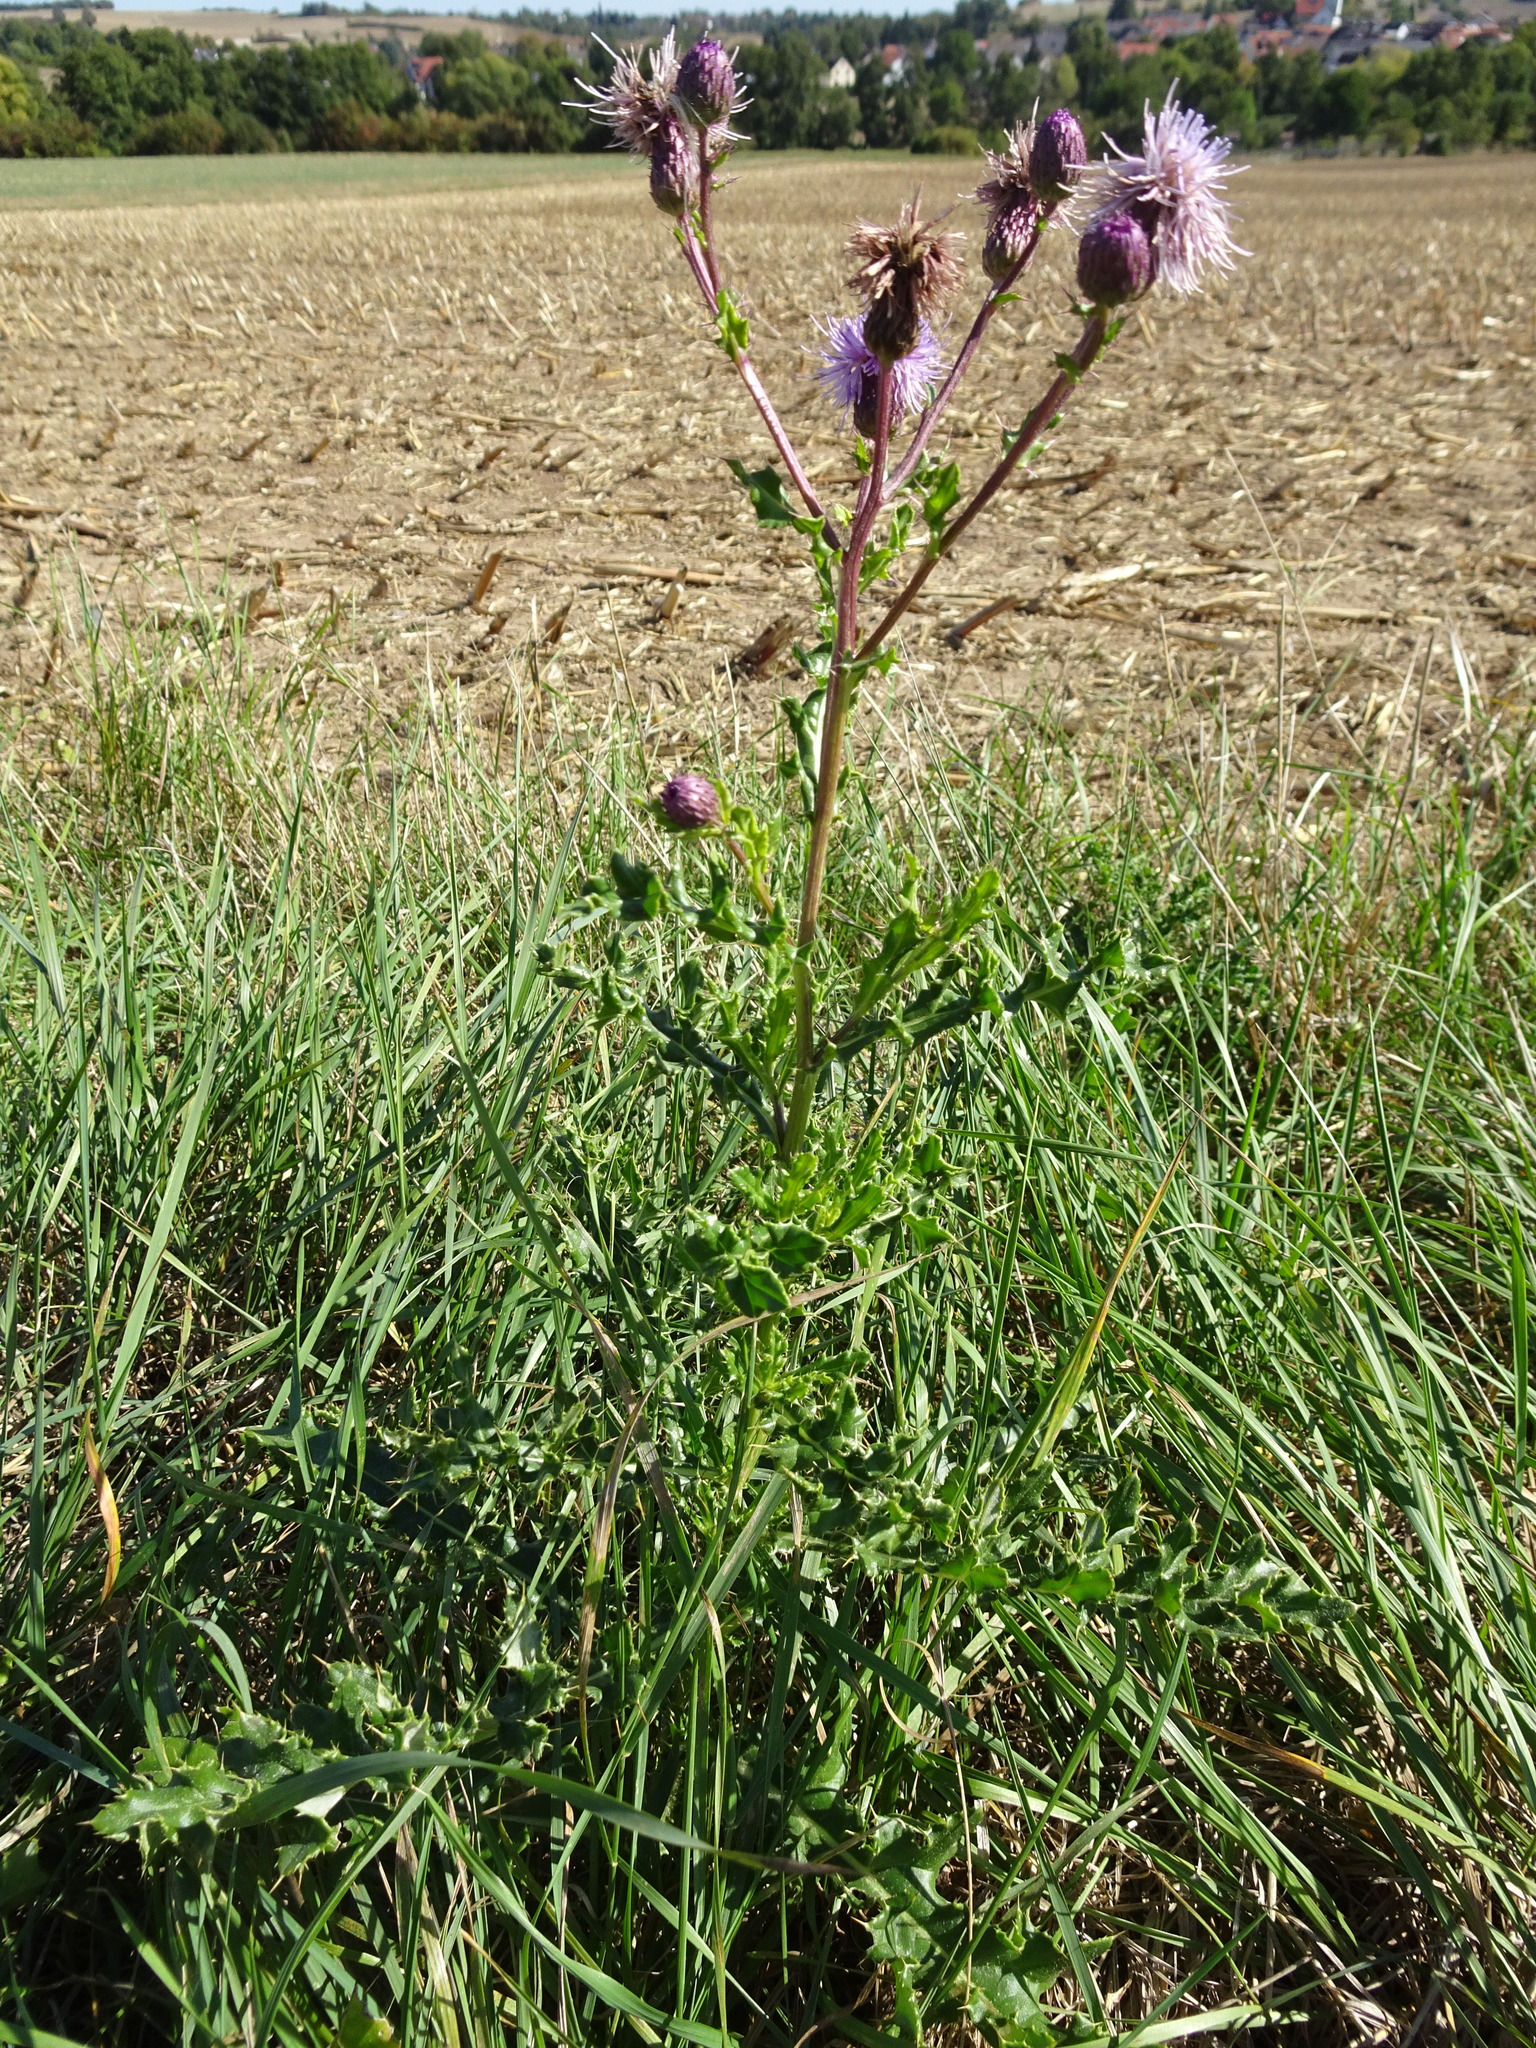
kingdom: Plantae
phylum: Tracheophyta
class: Magnoliopsida
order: Asterales
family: Asteraceae
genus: Cirsium
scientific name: Cirsium arvense
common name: Creeping thistle
